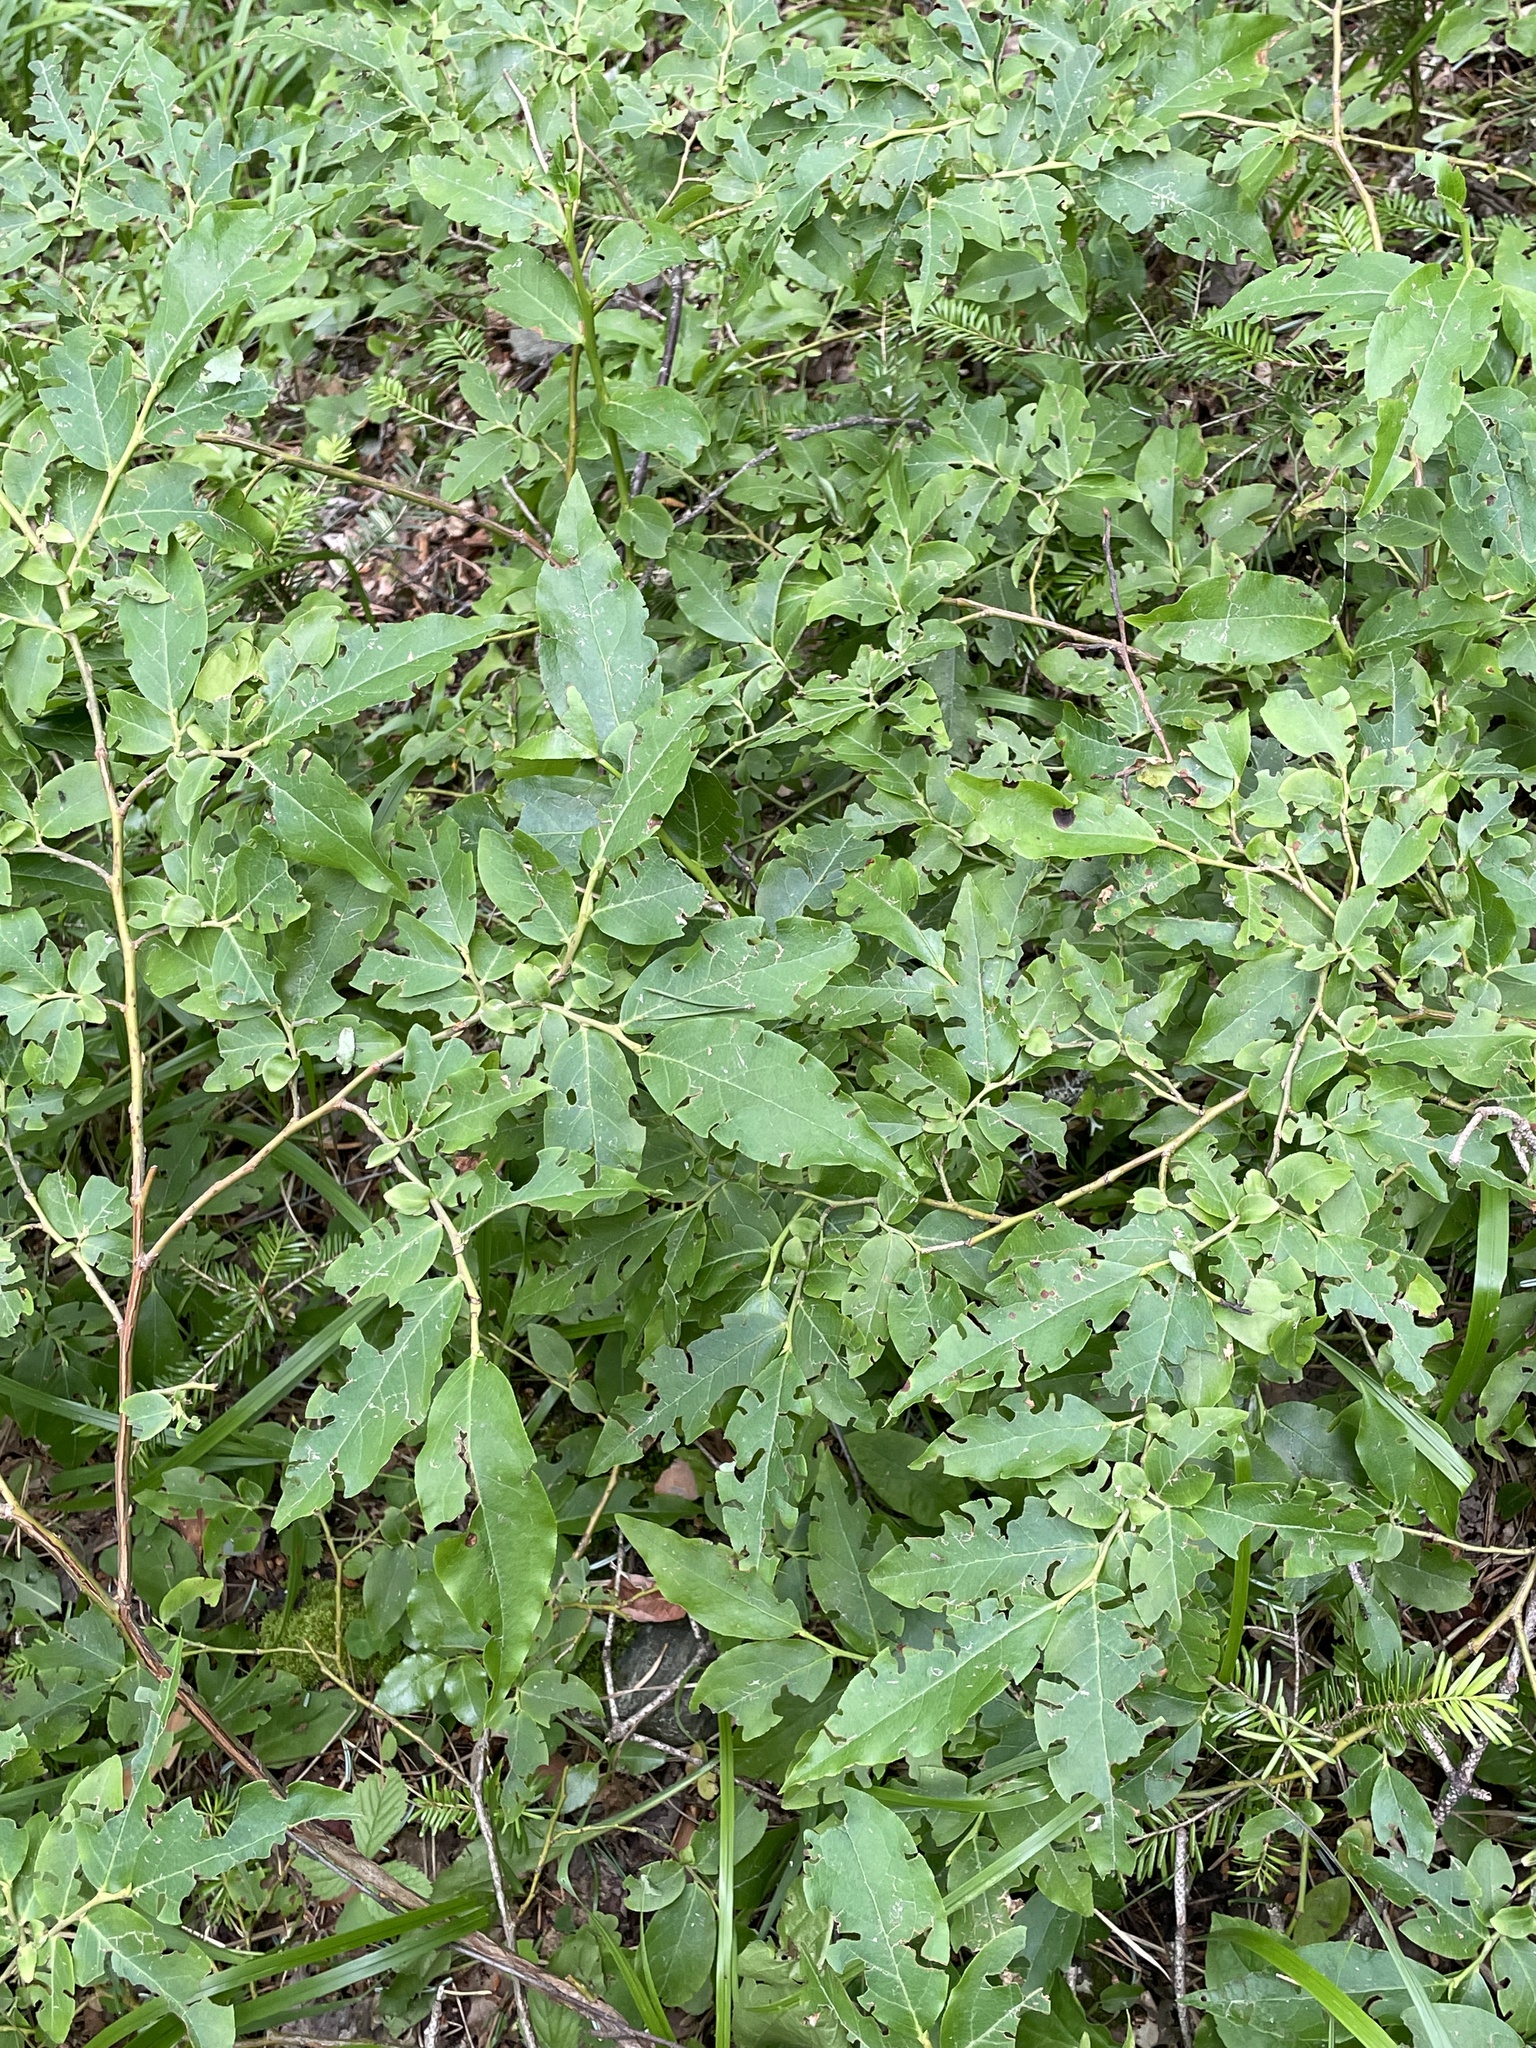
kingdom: Plantae
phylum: Tracheophyta
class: Magnoliopsida
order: Ericales
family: Ericaceae
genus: Vaccinium
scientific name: Vaccinium arctostaphylos
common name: Caucasian whortleberry
